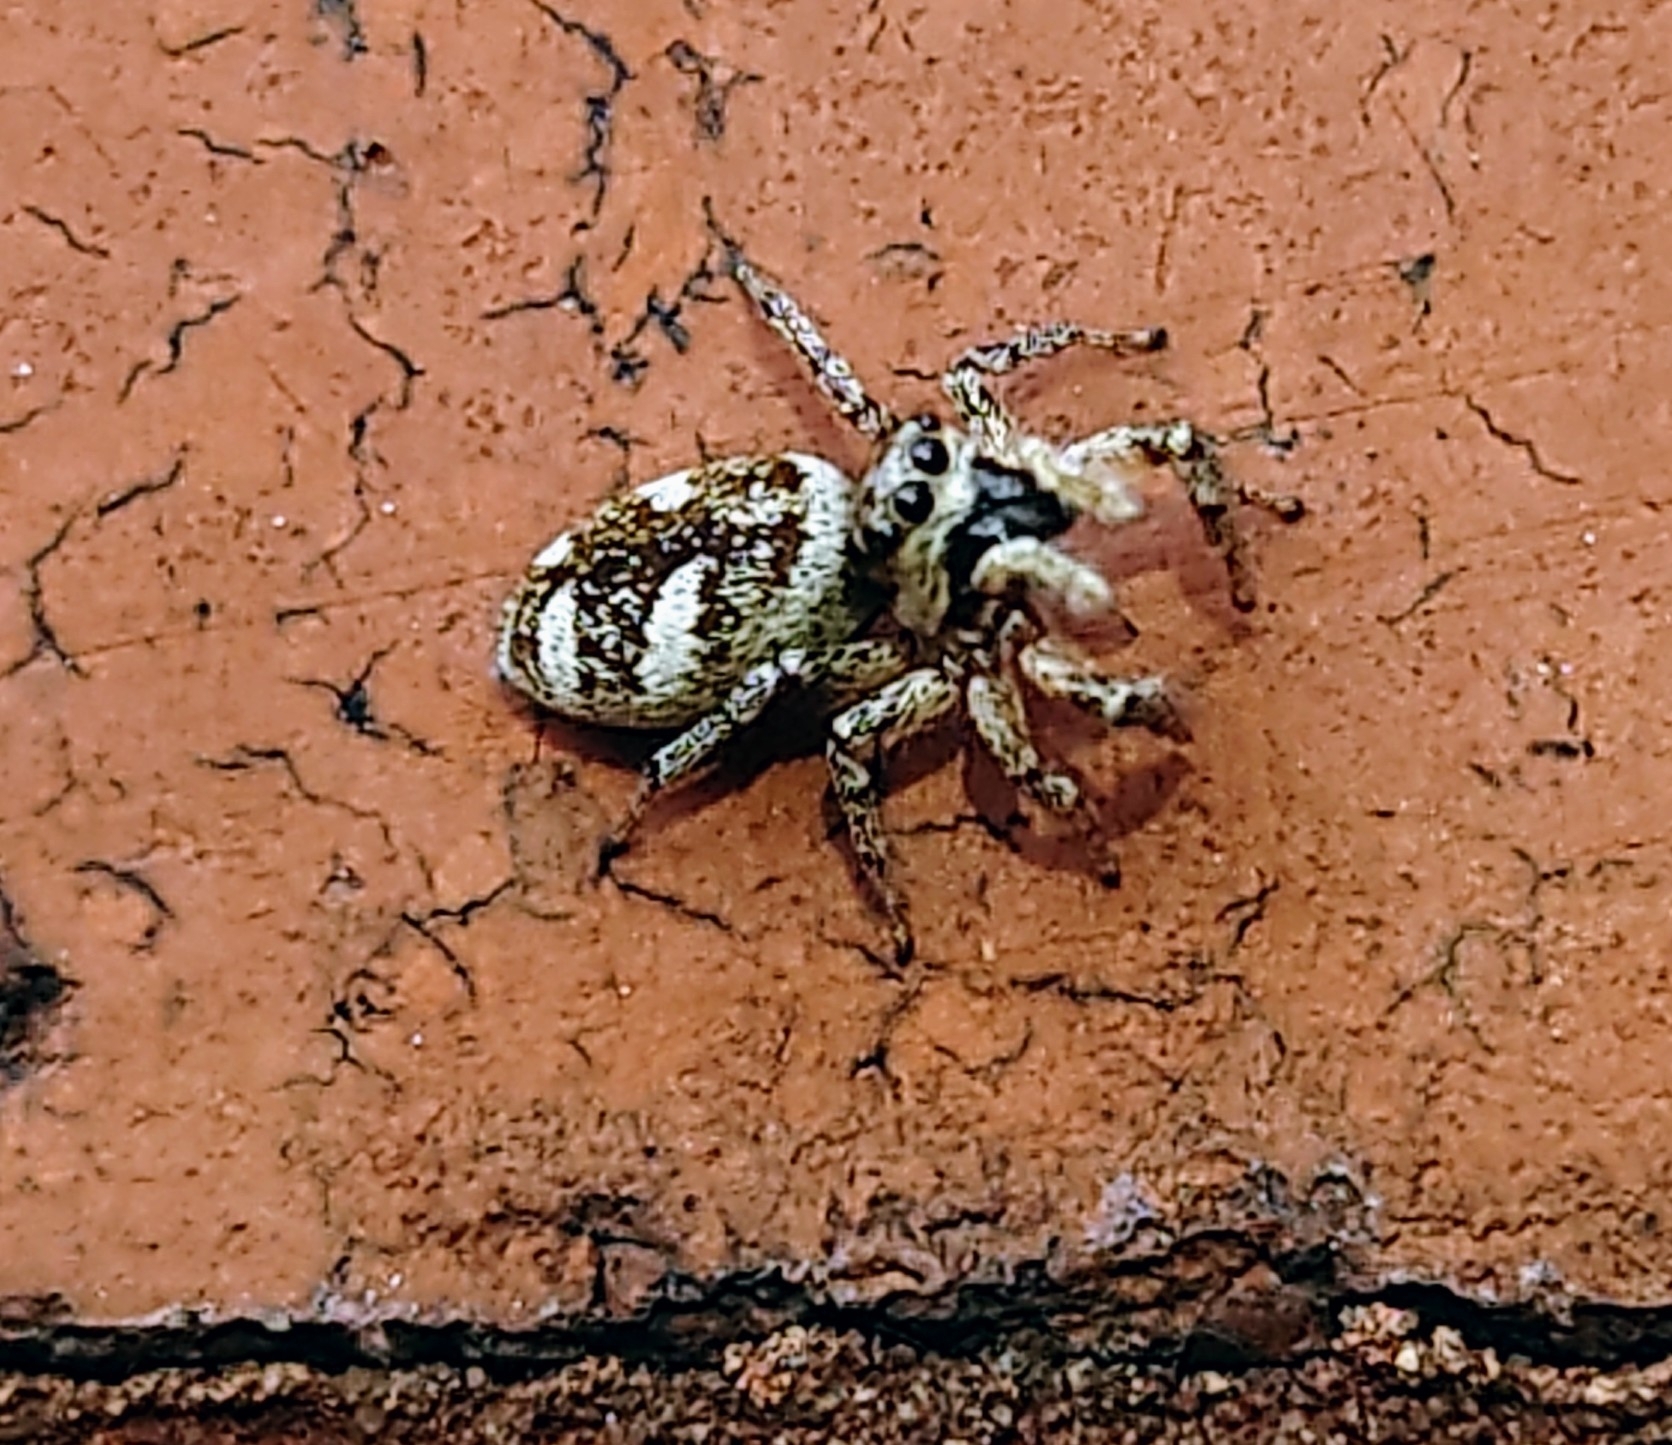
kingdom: Animalia
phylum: Arthropoda
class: Arachnida
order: Araneae
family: Salticidae
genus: Salticus
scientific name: Salticus scenicus
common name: Zebra jumper
